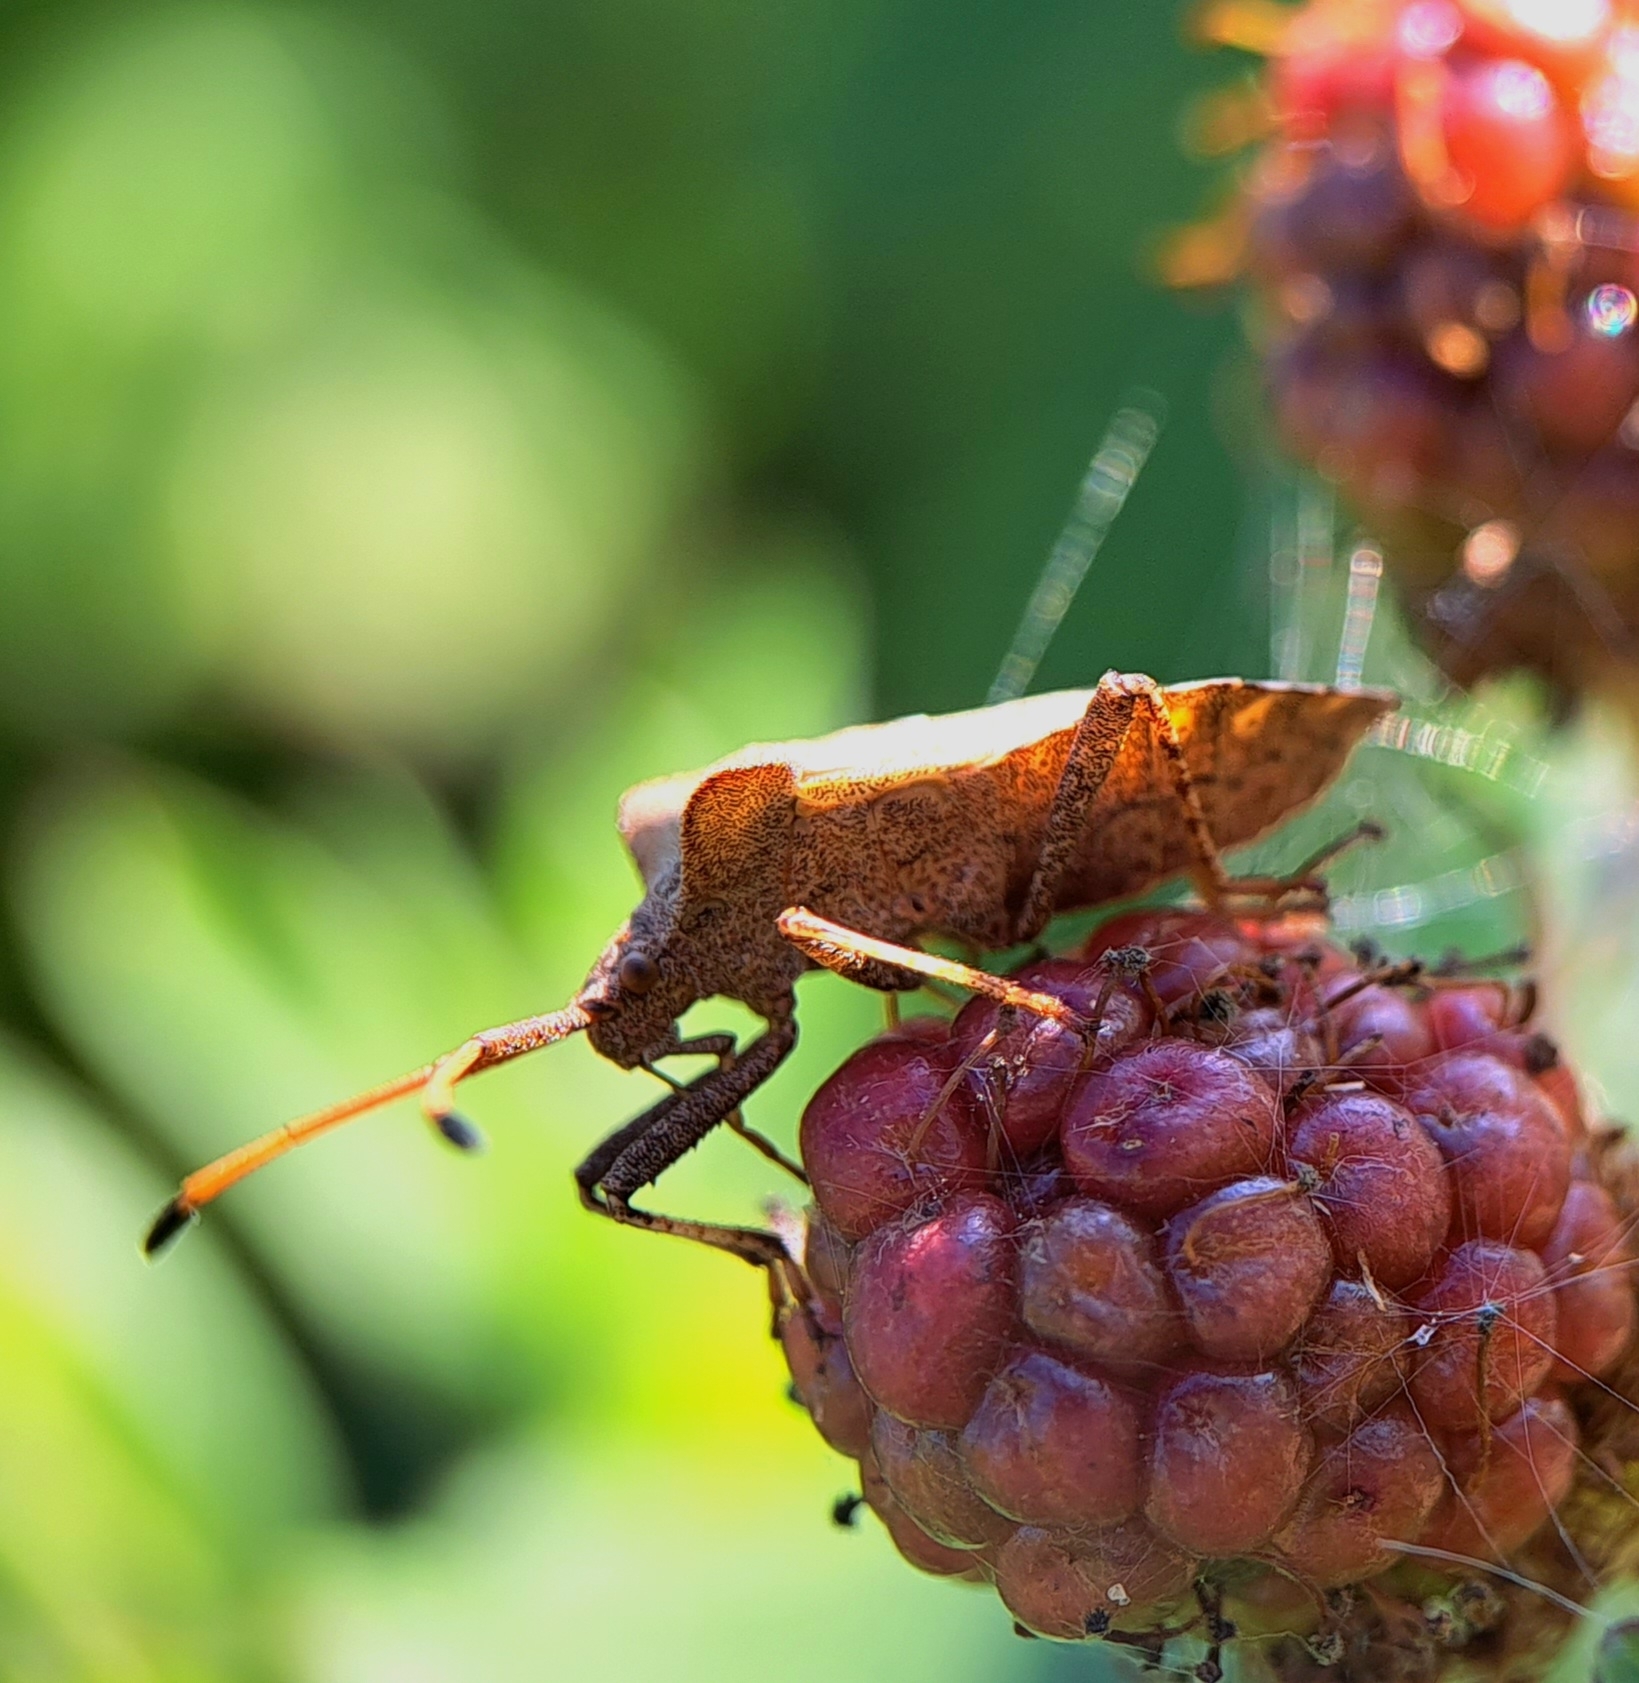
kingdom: Animalia
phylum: Arthropoda
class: Insecta
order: Hemiptera
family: Coreidae
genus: Coreus
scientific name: Coreus marginatus
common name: Dock bug
